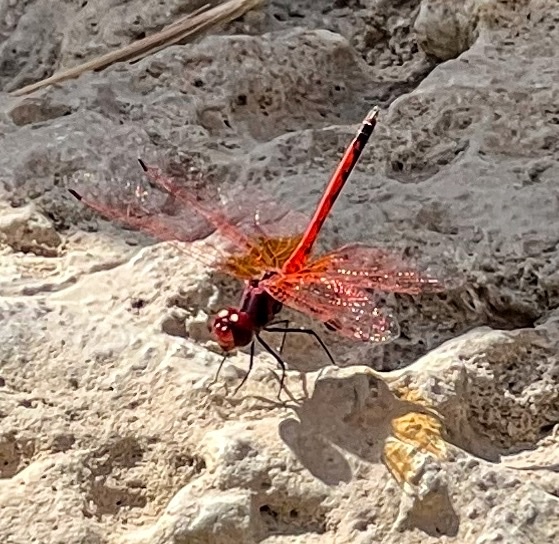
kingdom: Animalia
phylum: Arthropoda
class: Insecta
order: Odonata
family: Libellulidae
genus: Trithemis
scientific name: Trithemis arteriosa
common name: Red-veined dropwing
